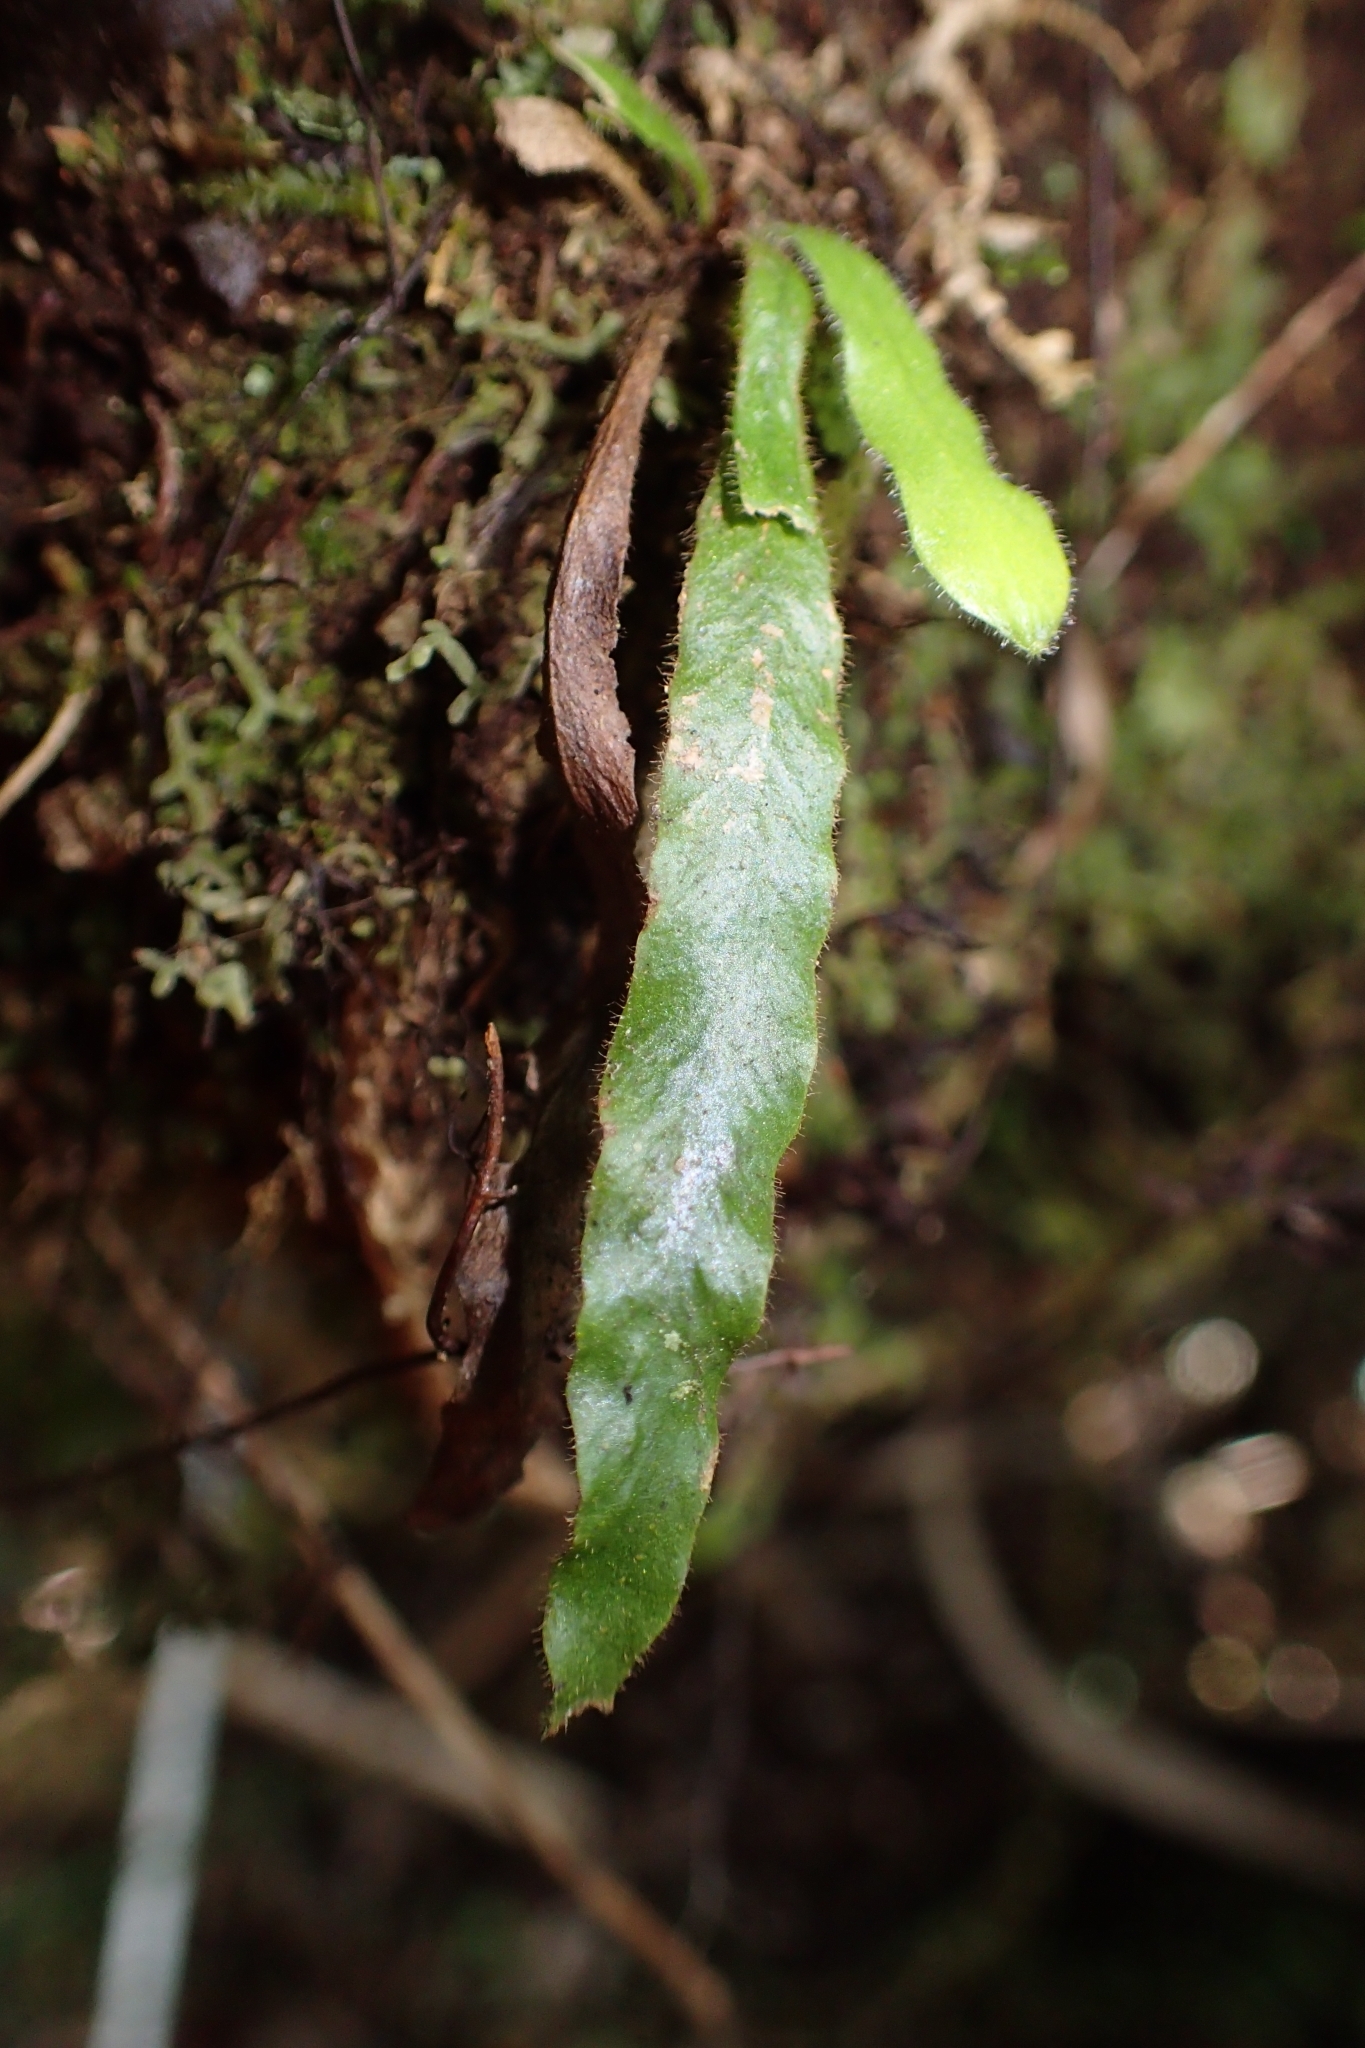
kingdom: Plantae
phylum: Tracheophyta
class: Polypodiopsida
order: Polypodiales
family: Polypodiaceae
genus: Notogrammitis
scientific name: Notogrammitis pseudociliata
